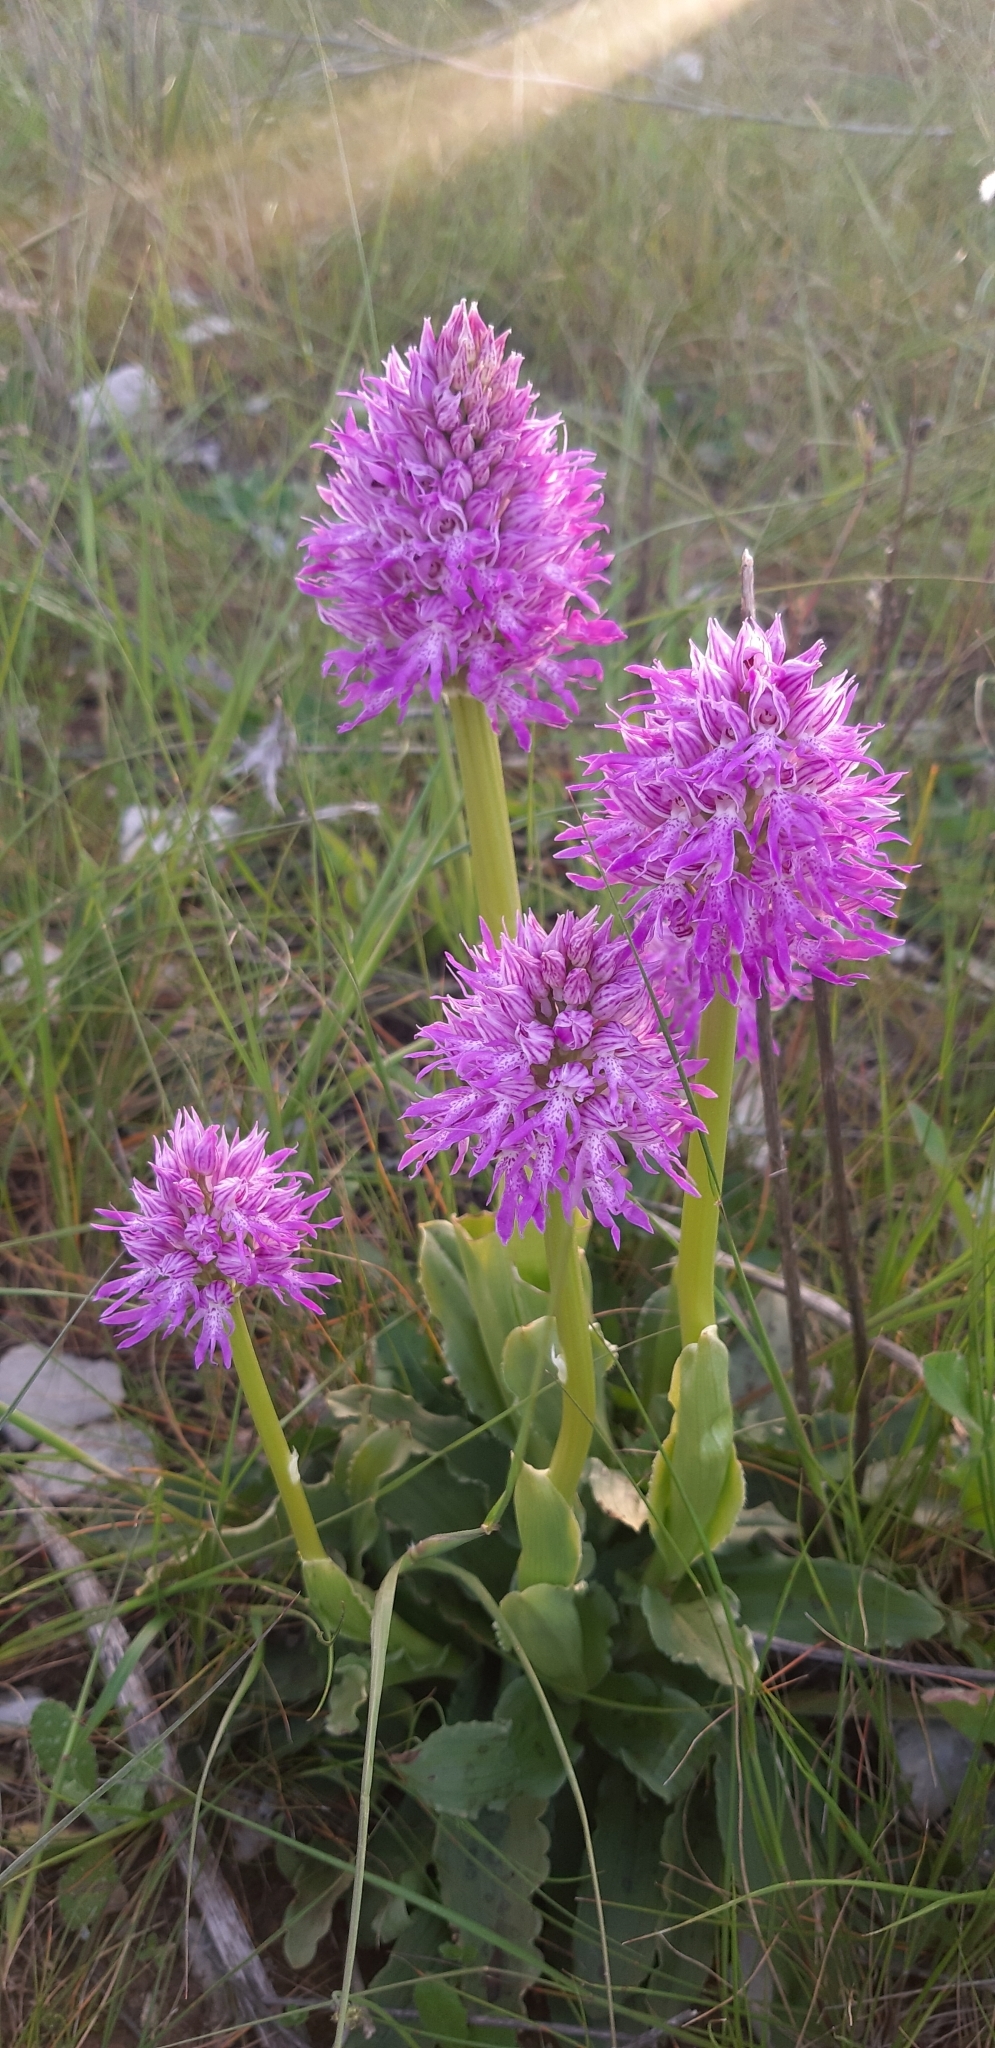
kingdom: Plantae
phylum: Tracheophyta
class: Liliopsida
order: Asparagales
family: Orchidaceae
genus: Orchis
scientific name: Orchis italica
